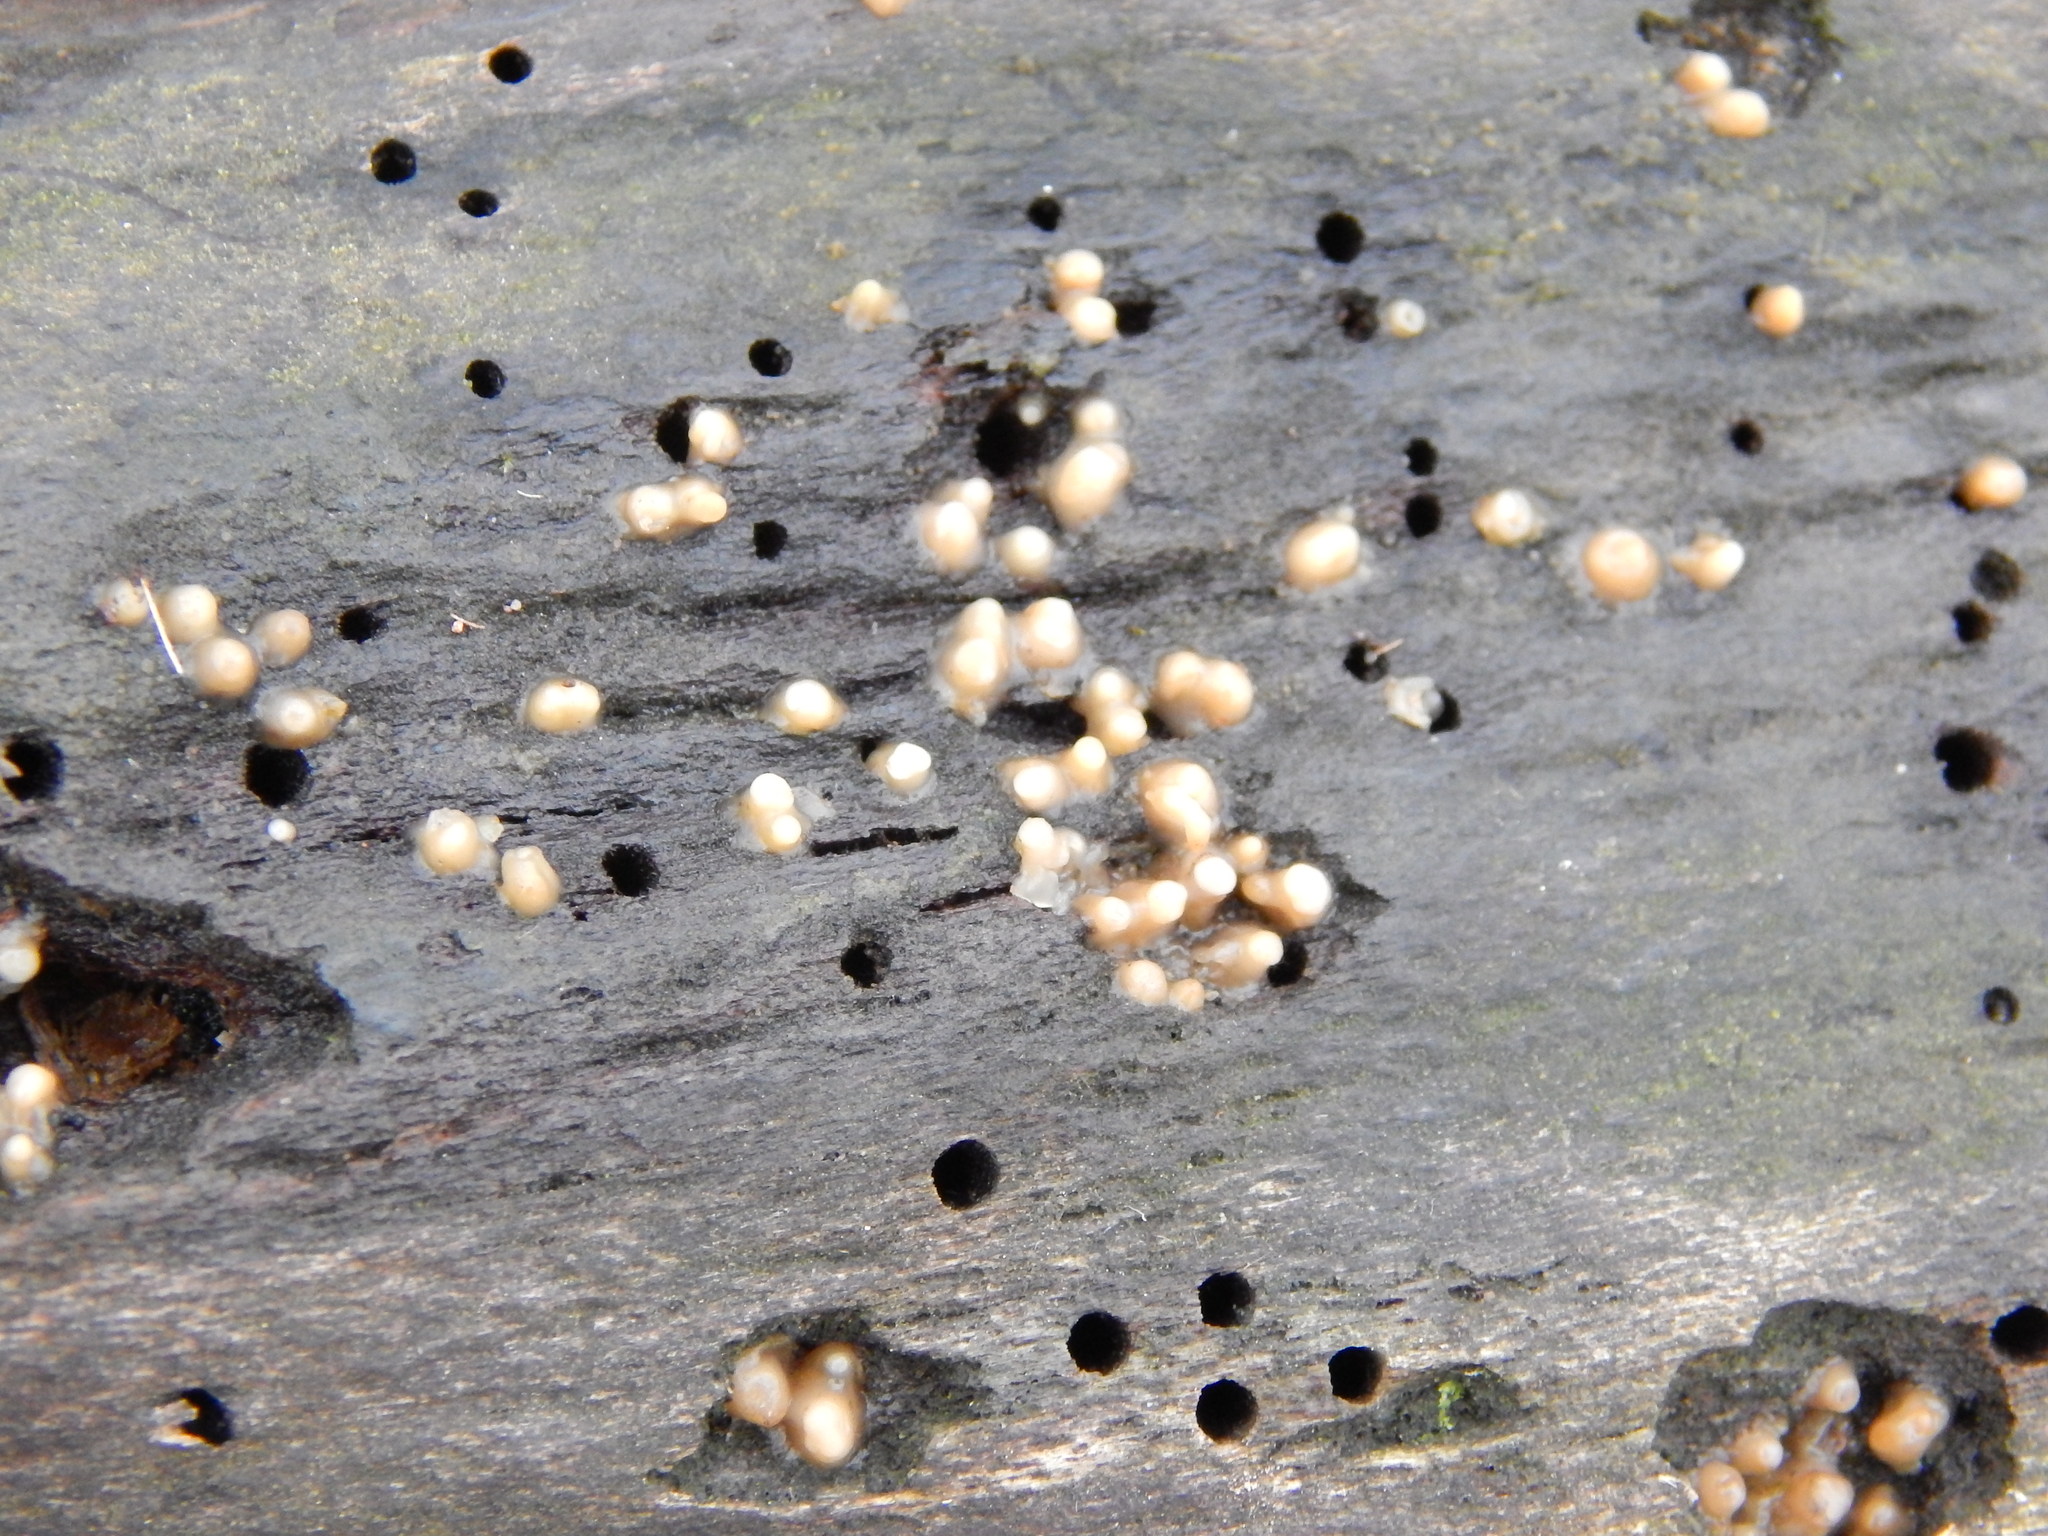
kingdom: Fungi
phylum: Basidiomycota
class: Atractiellomycetes
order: Atractiellales
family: Phleogenaceae
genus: Helicogloea
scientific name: Helicogloea compressa
